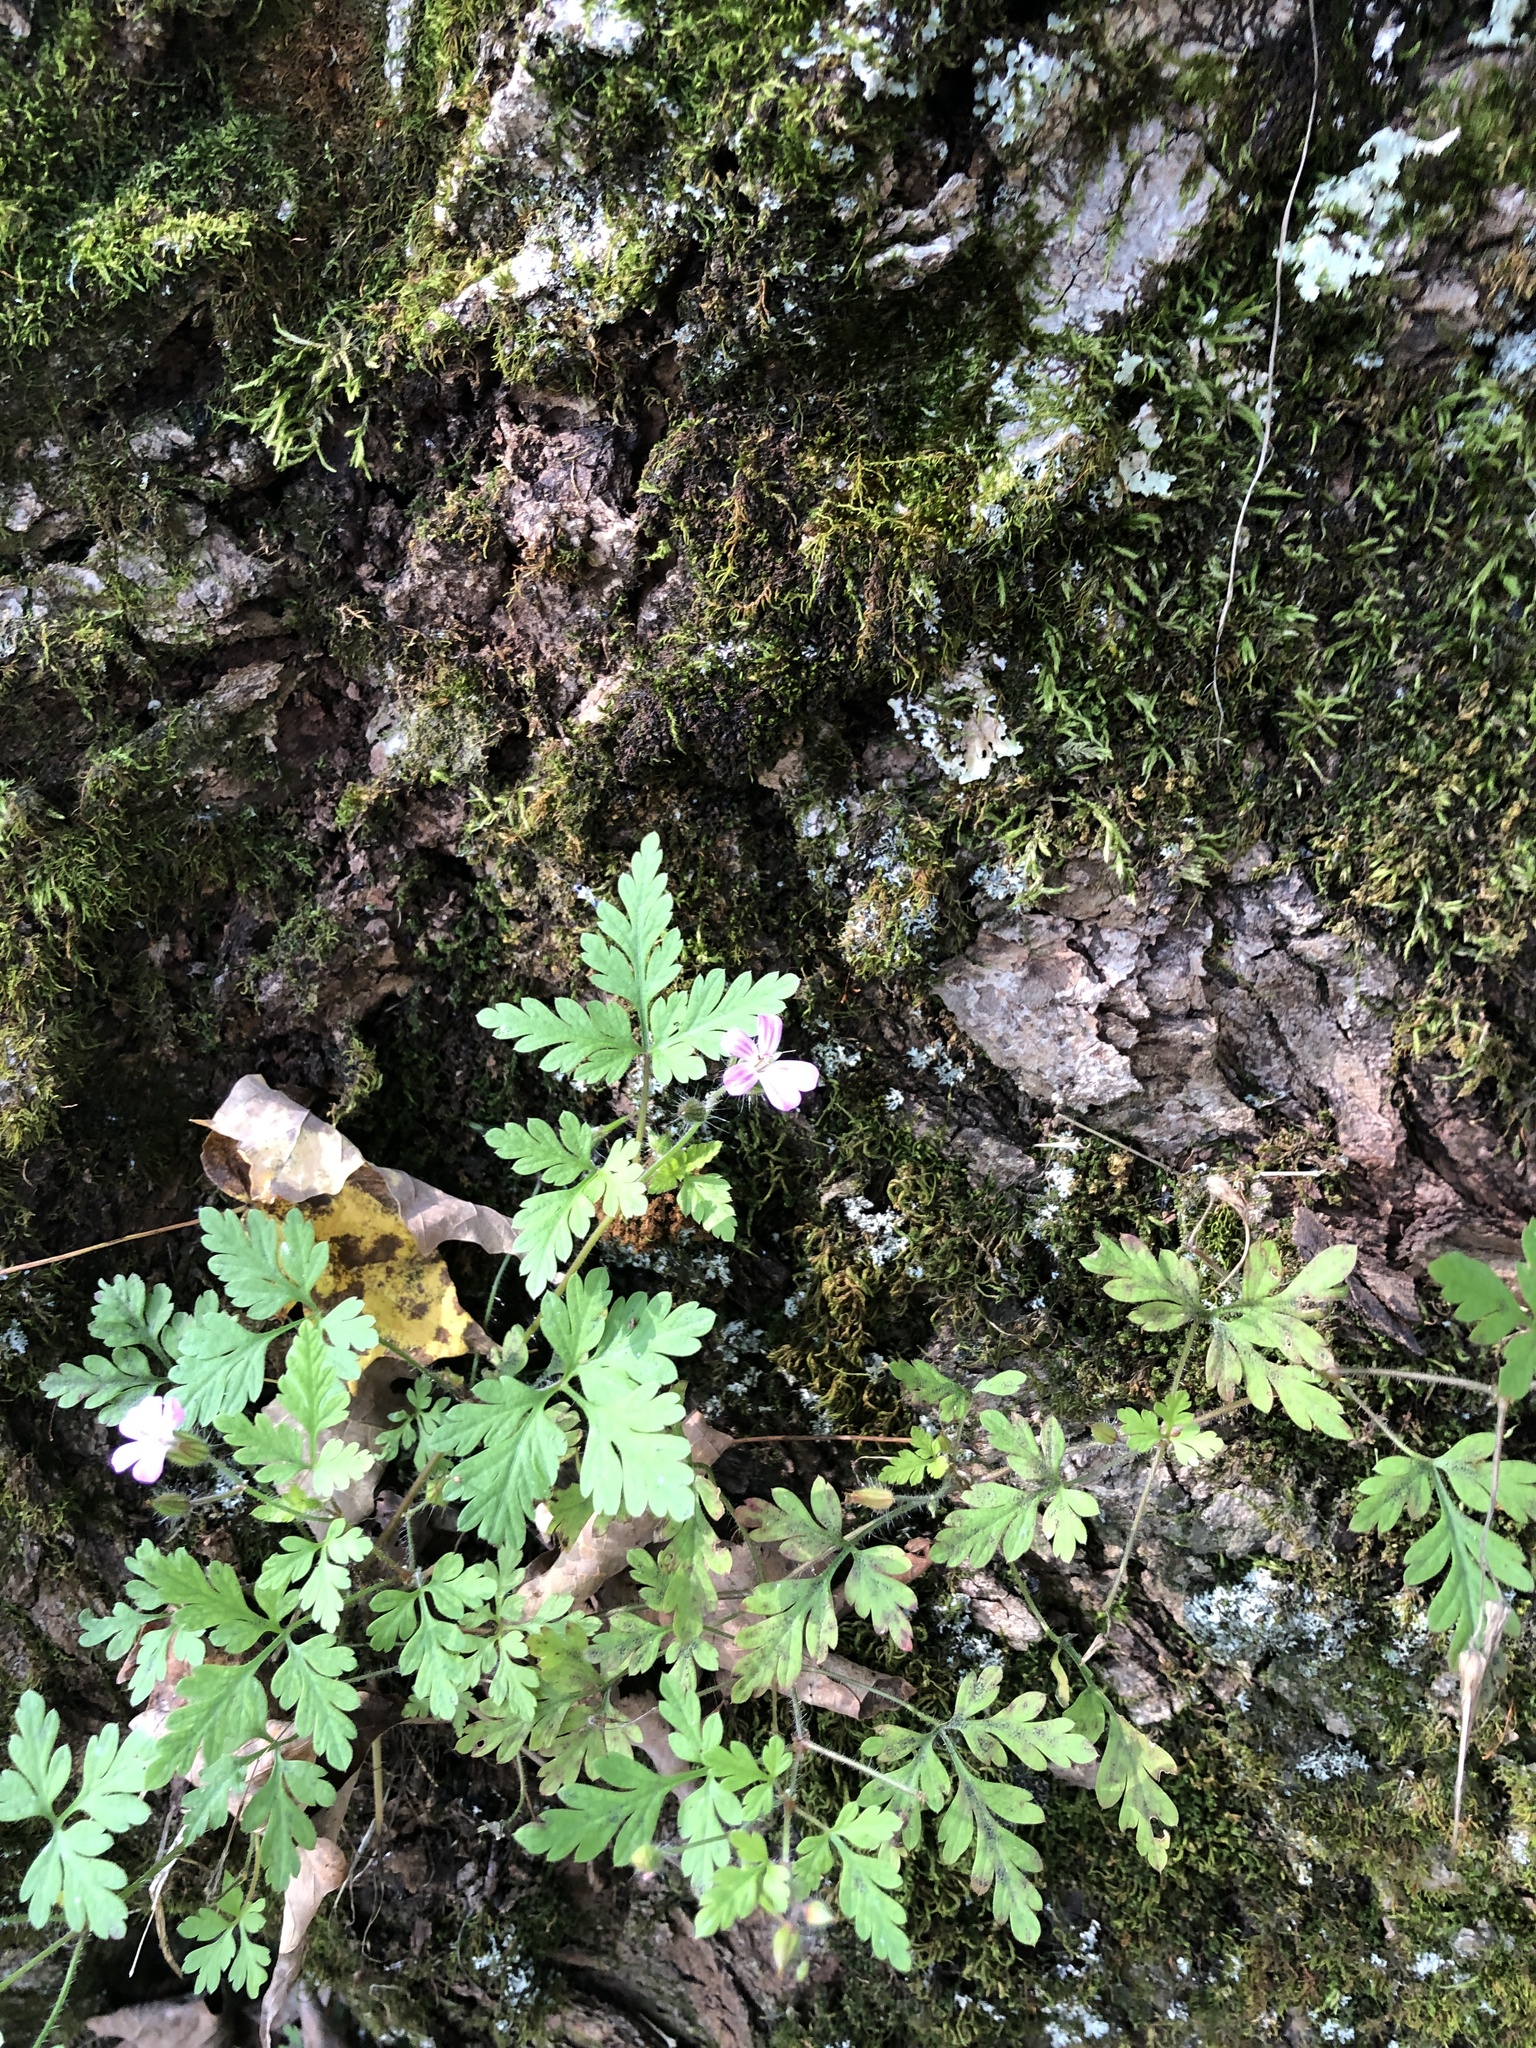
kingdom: Plantae
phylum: Tracheophyta
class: Magnoliopsida
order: Geraniales
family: Geraniaceae
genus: Geranium
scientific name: Geranium robertianum
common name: Herb-robert
